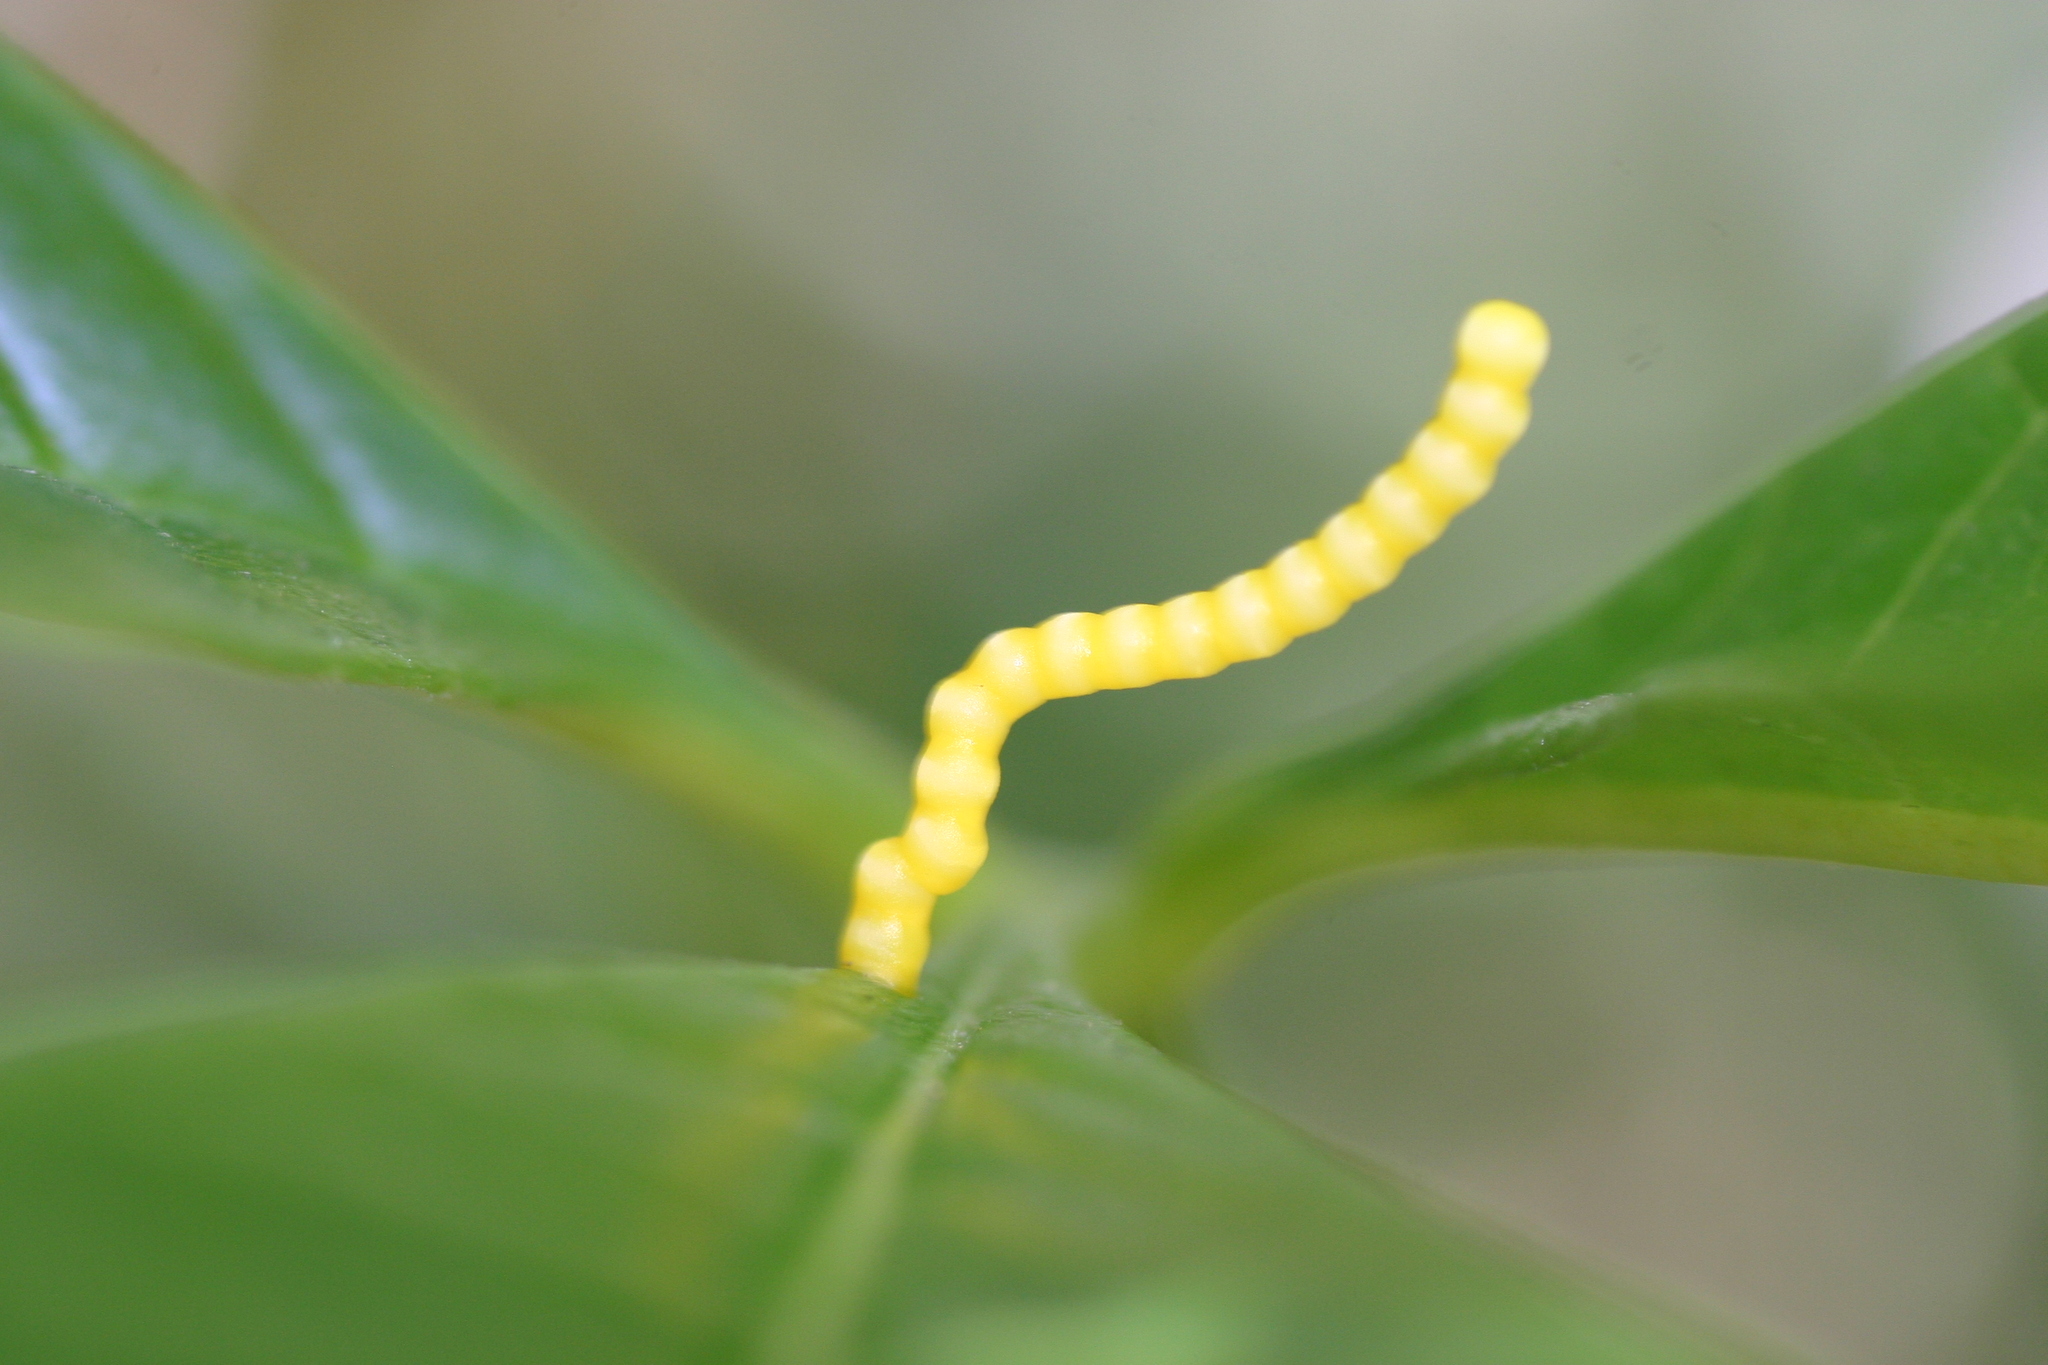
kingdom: Animalia
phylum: Arthropoda
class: Insecta
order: Lepidoptera
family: Papilionidae
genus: Papilio
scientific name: Papilio liomedon
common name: Malabar banded swallowtail
